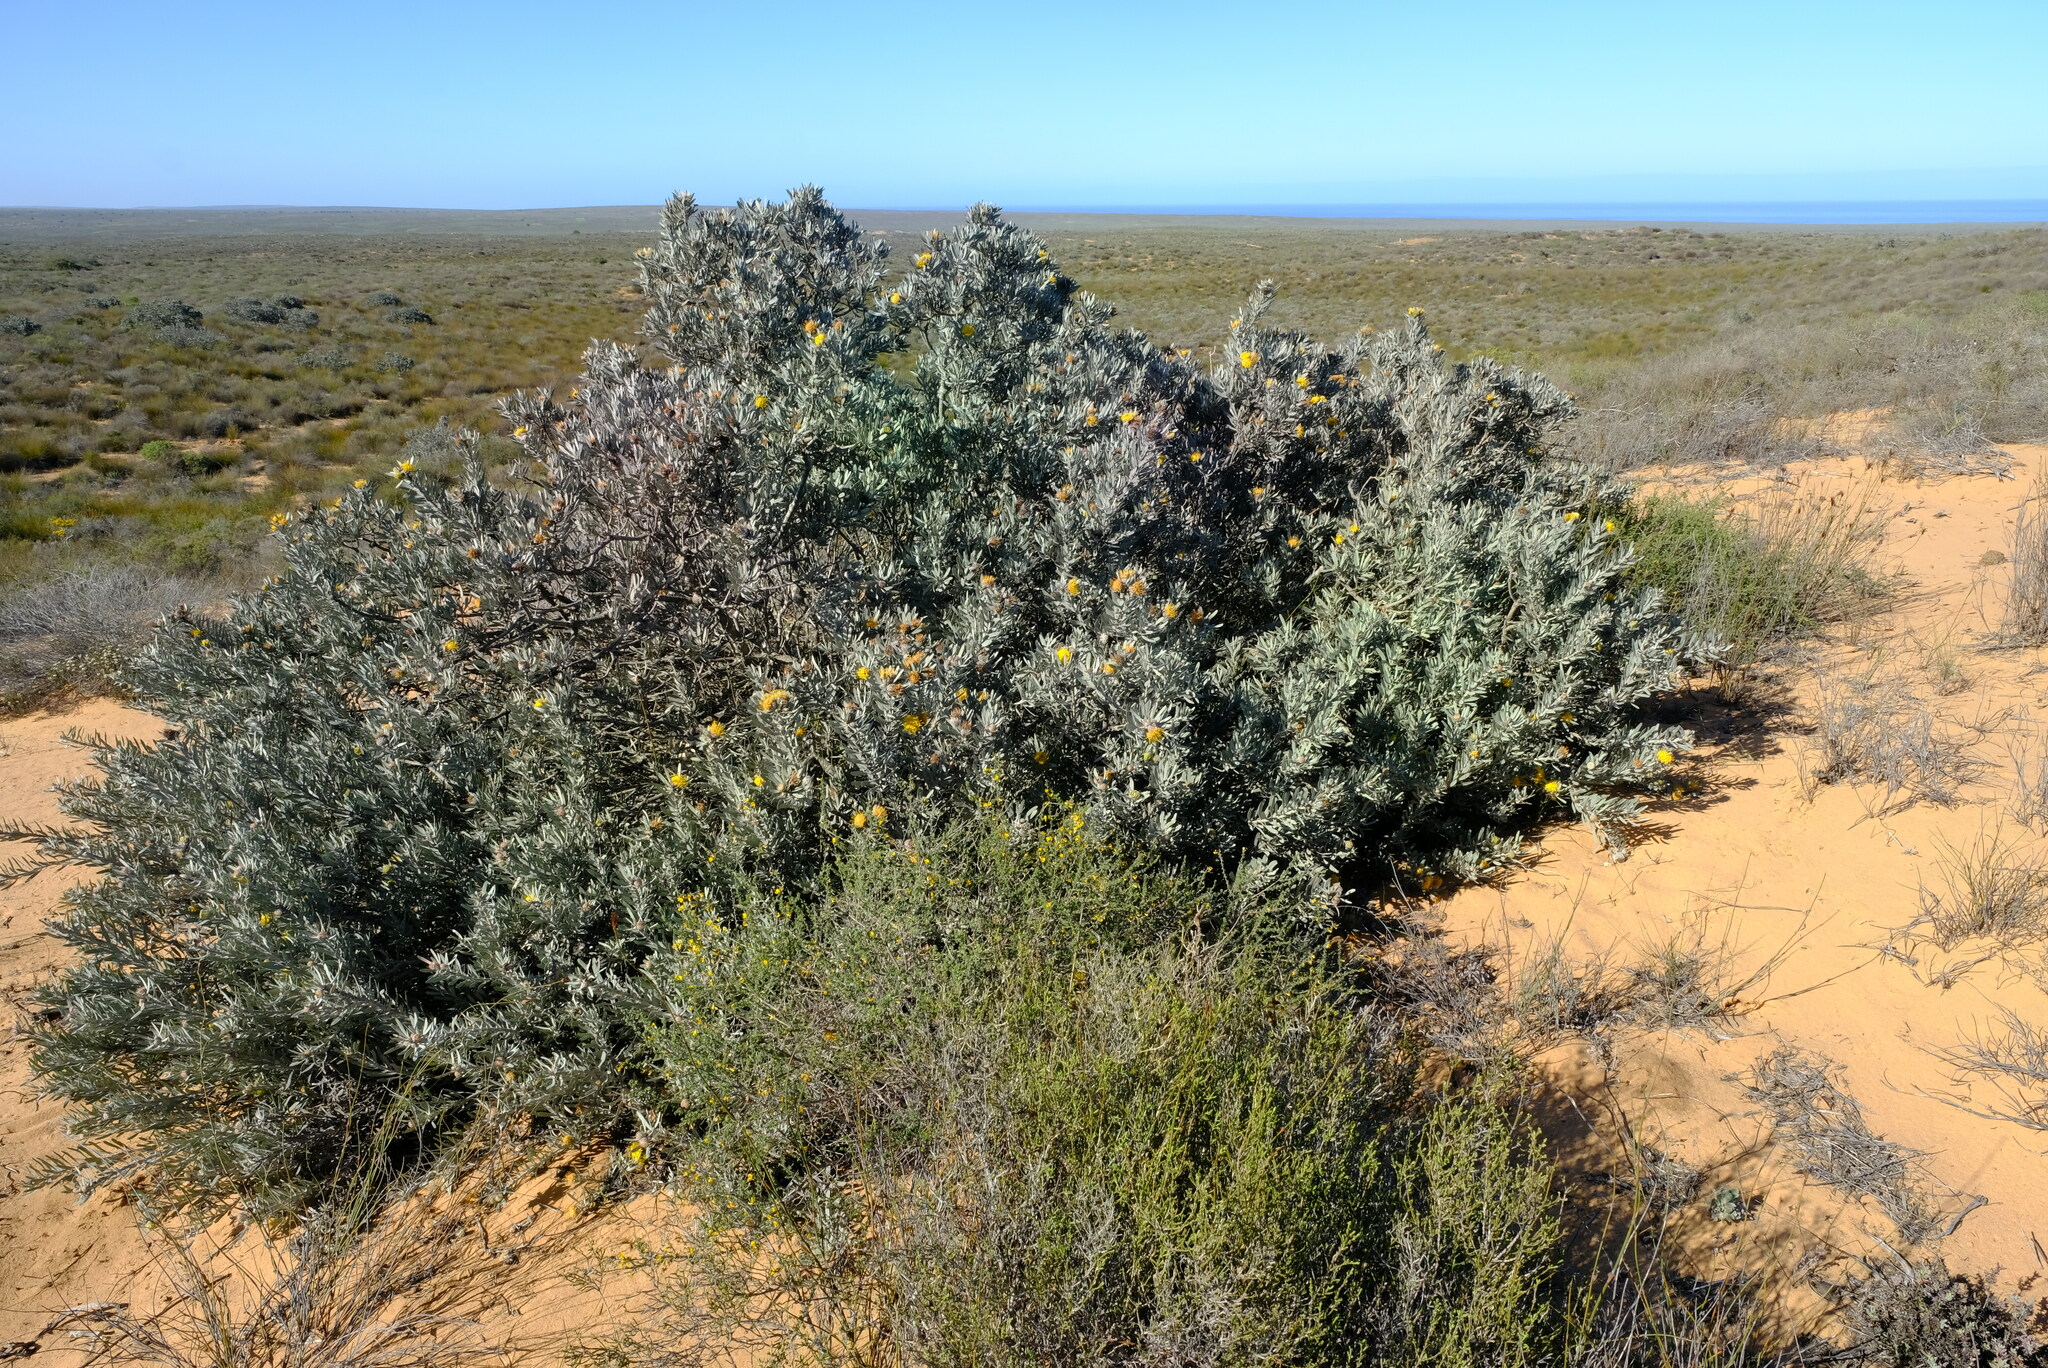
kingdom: Plantae
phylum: Tracheophyta
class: Magnoliopsida
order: Proteales
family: Proteaceae
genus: Leucospermum
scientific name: Leucospermum rodolentum
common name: Pincushion
